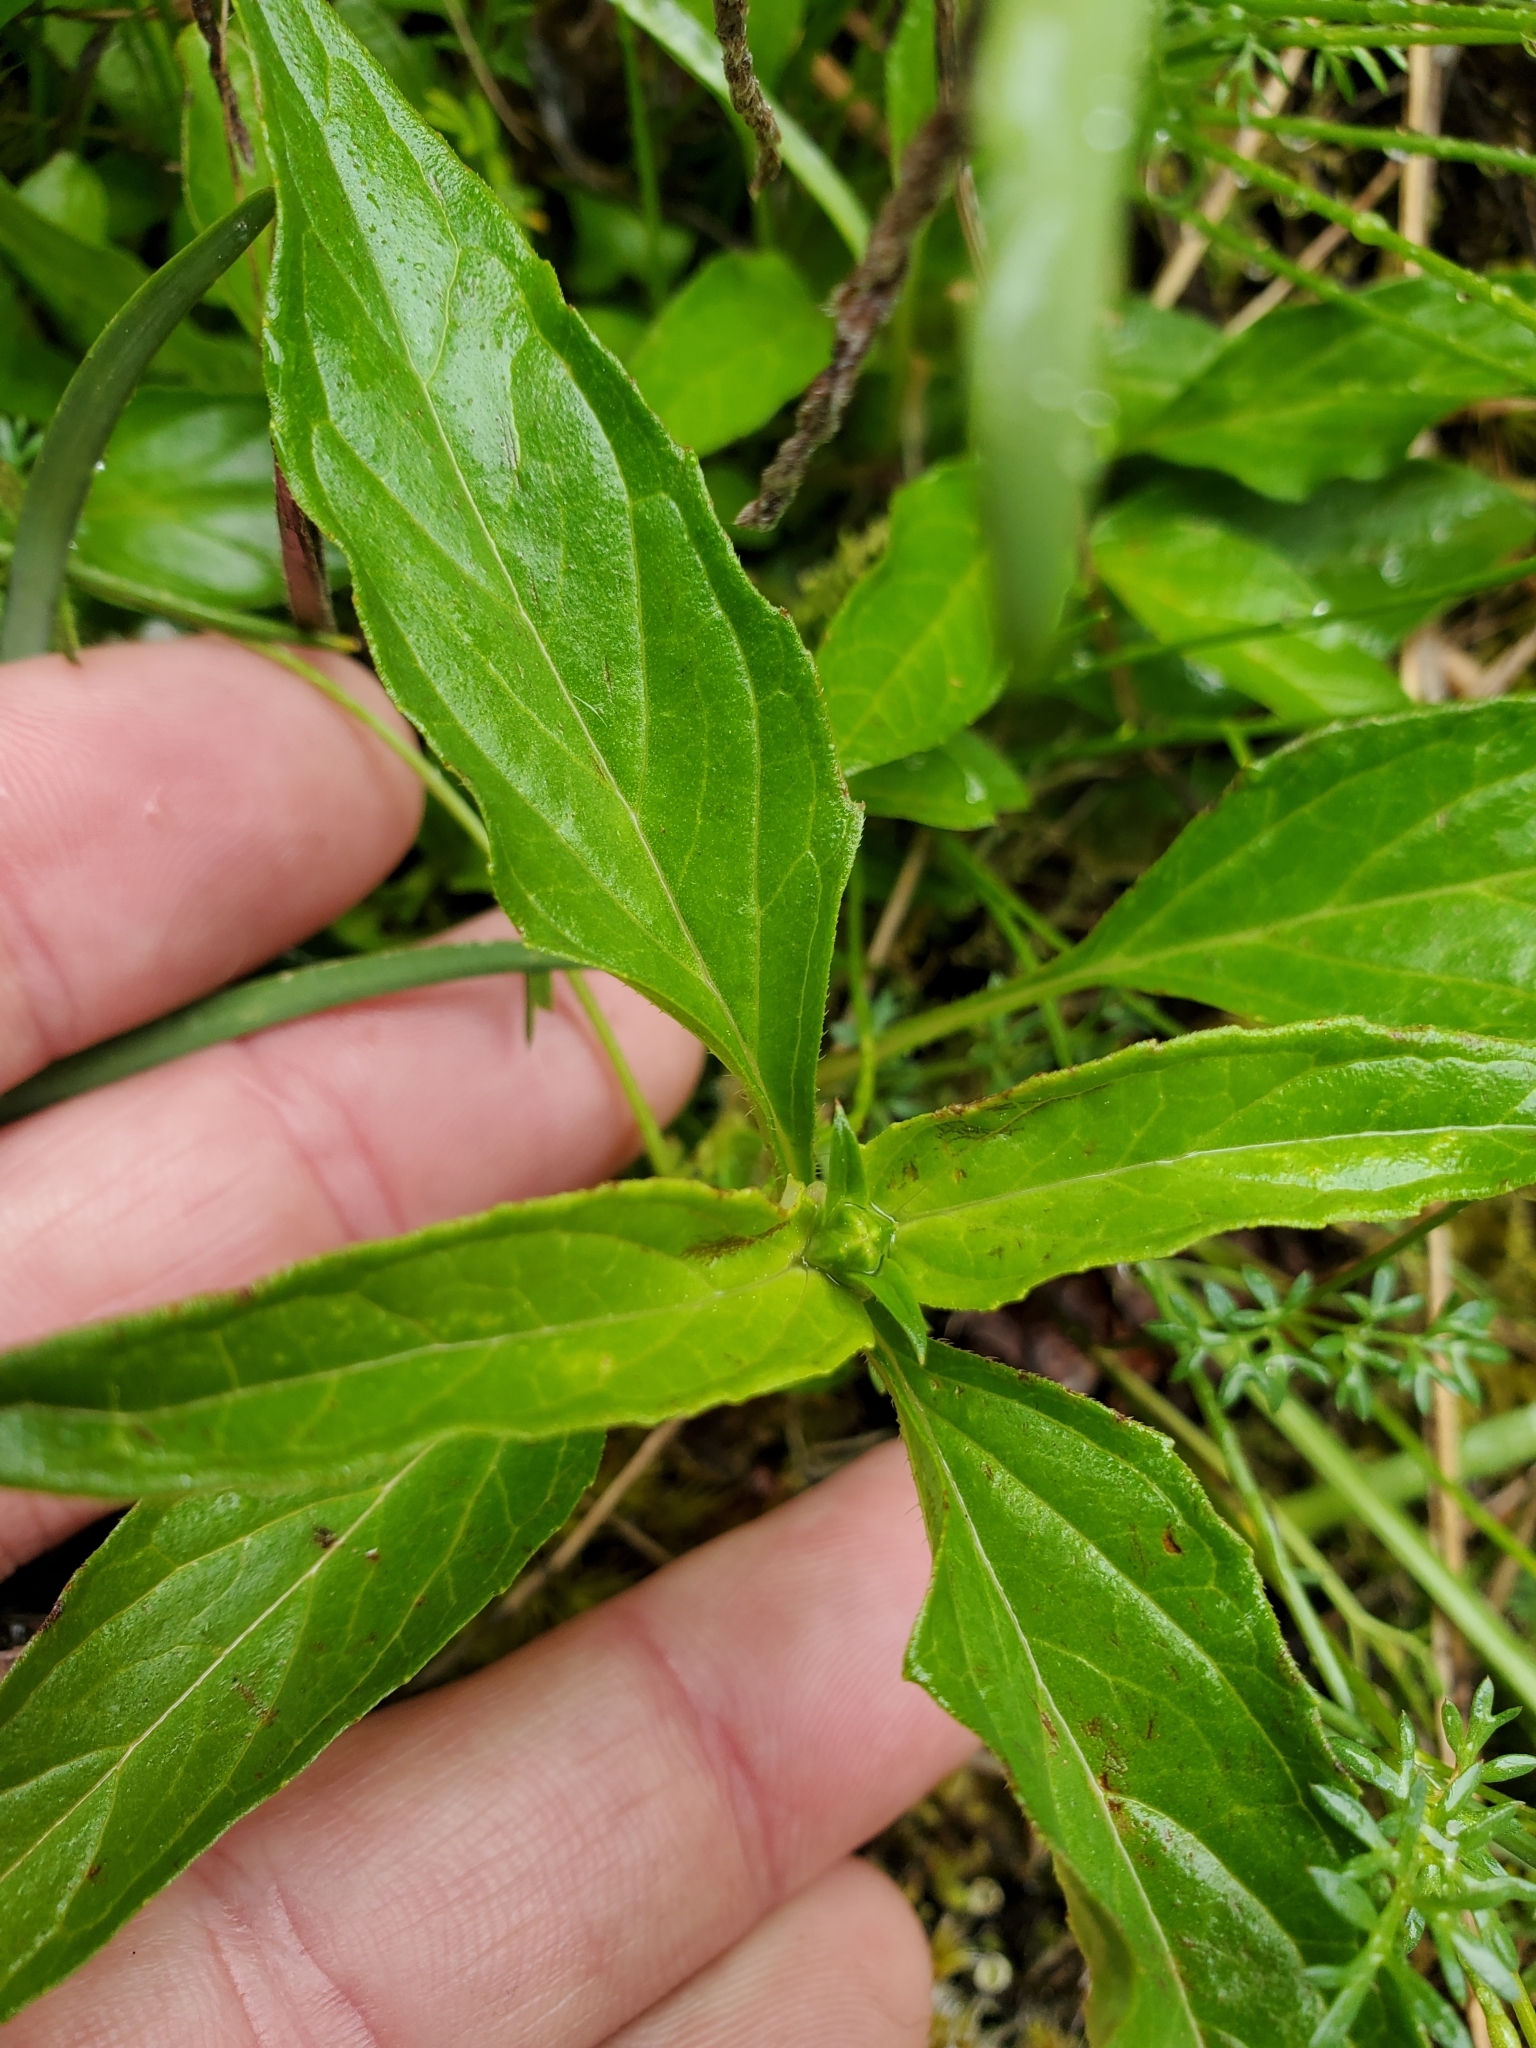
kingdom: Plantae
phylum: Tracheophyta
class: Magnoliopsida
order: Lamiales
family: Lamiaceae
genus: Prunella
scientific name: Prunella vulgaris
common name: Heal-all
